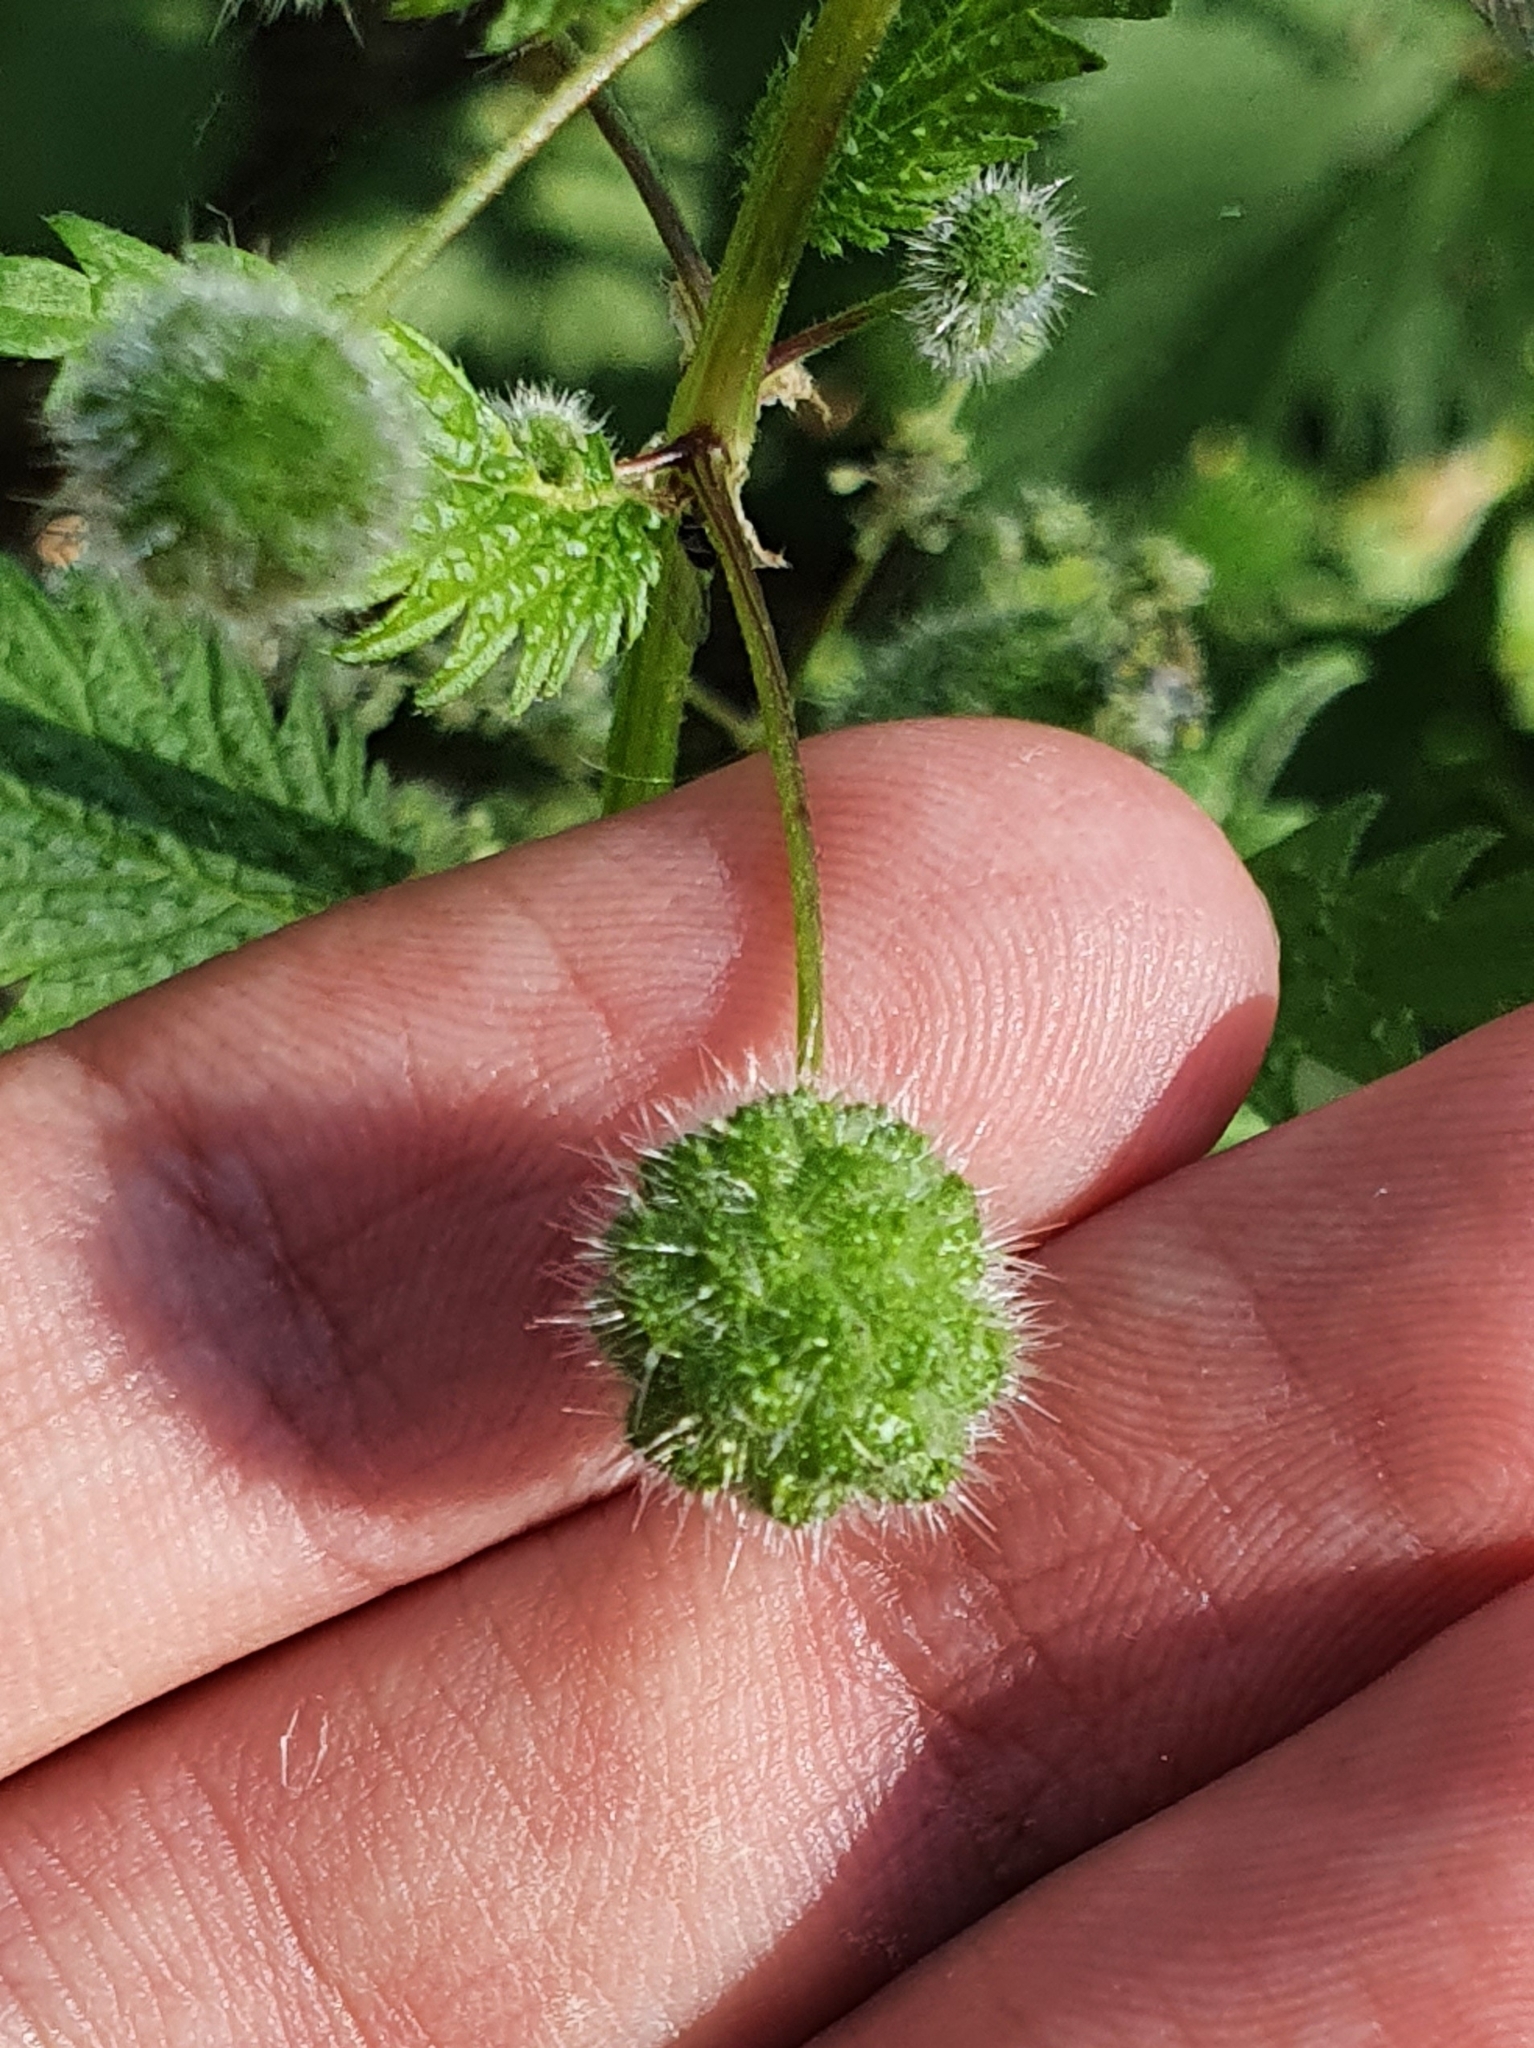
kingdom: Plantae
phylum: Tracheophyta
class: Magnoliopsida
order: Rosales
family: Urticaceae
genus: Urtica
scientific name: Urtica pilulifera
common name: Roman nettle
